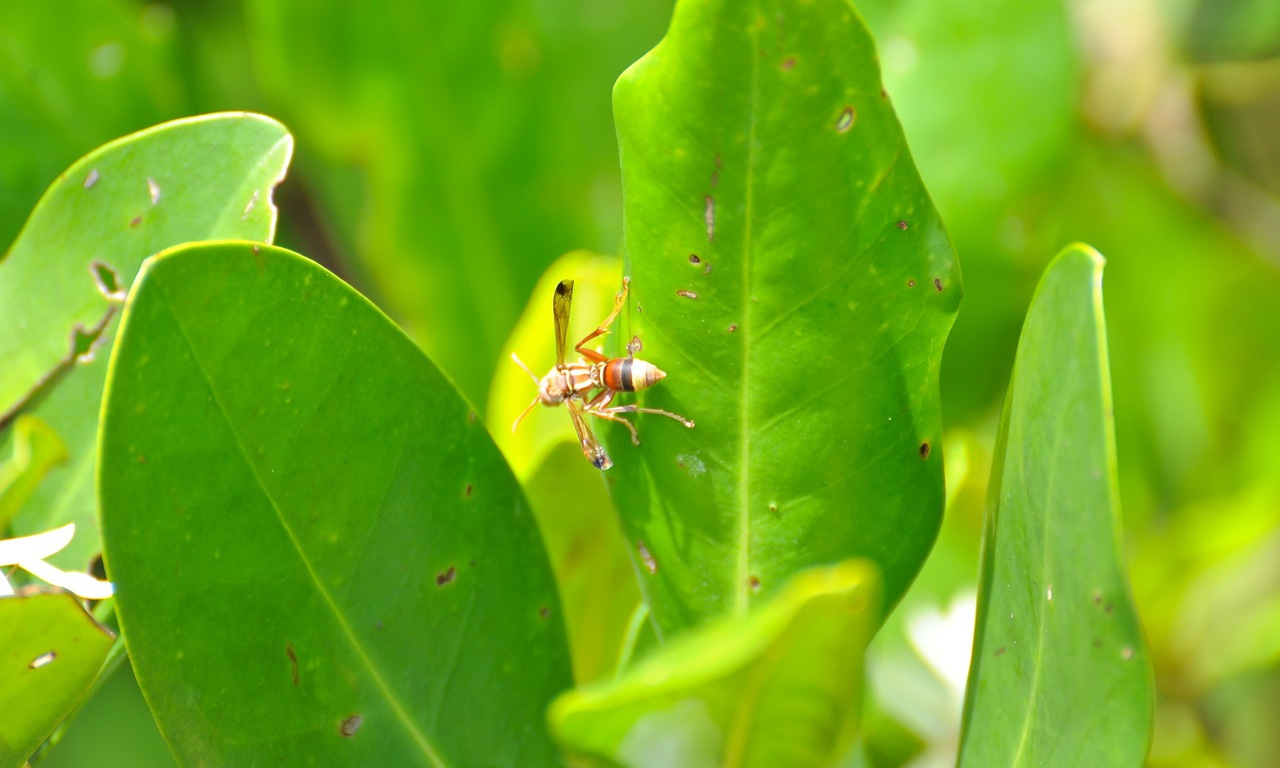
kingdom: Animalia
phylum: Arthropoda
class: Insecta
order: Hymenoptera
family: Eumenidae
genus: Polistes
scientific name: Polistes stigma
